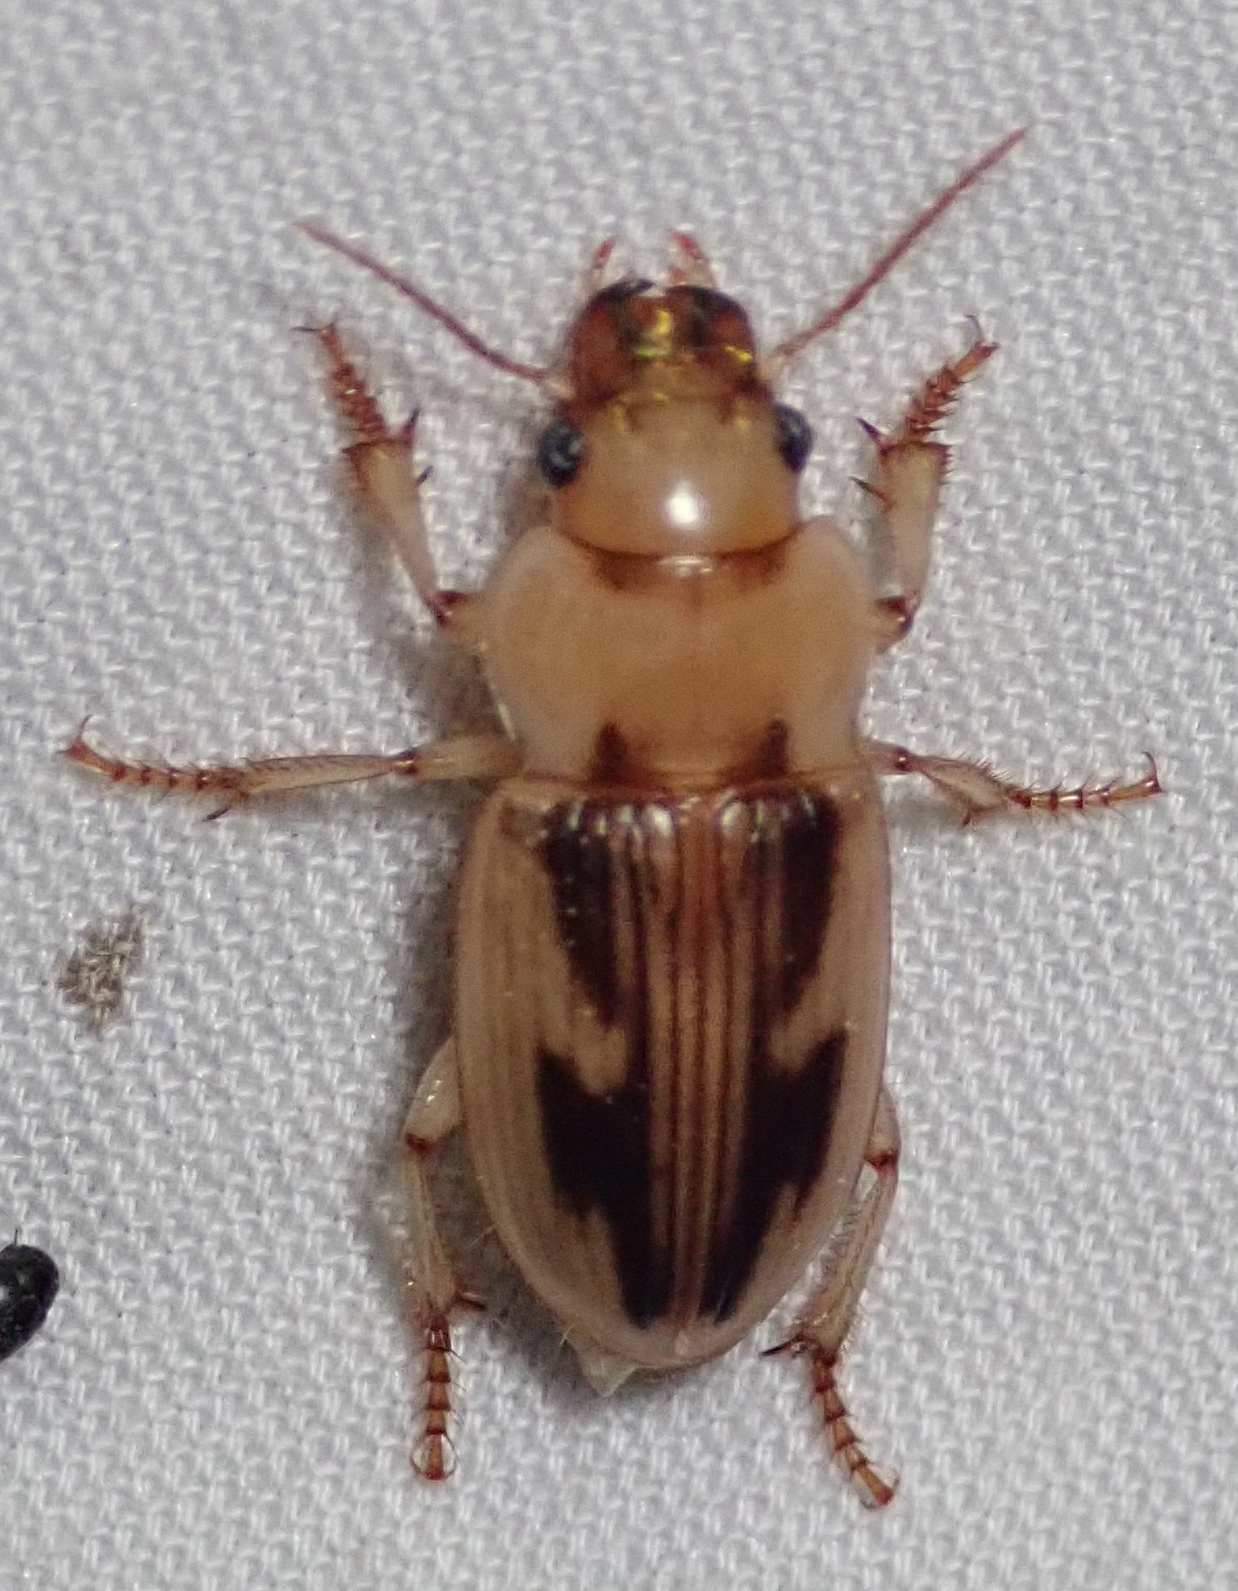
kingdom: Animalia
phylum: Arthropoda
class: Insecta
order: Coleoptera
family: Carabidae
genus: Bradybaenus
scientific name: Bradybaenus opulentus
